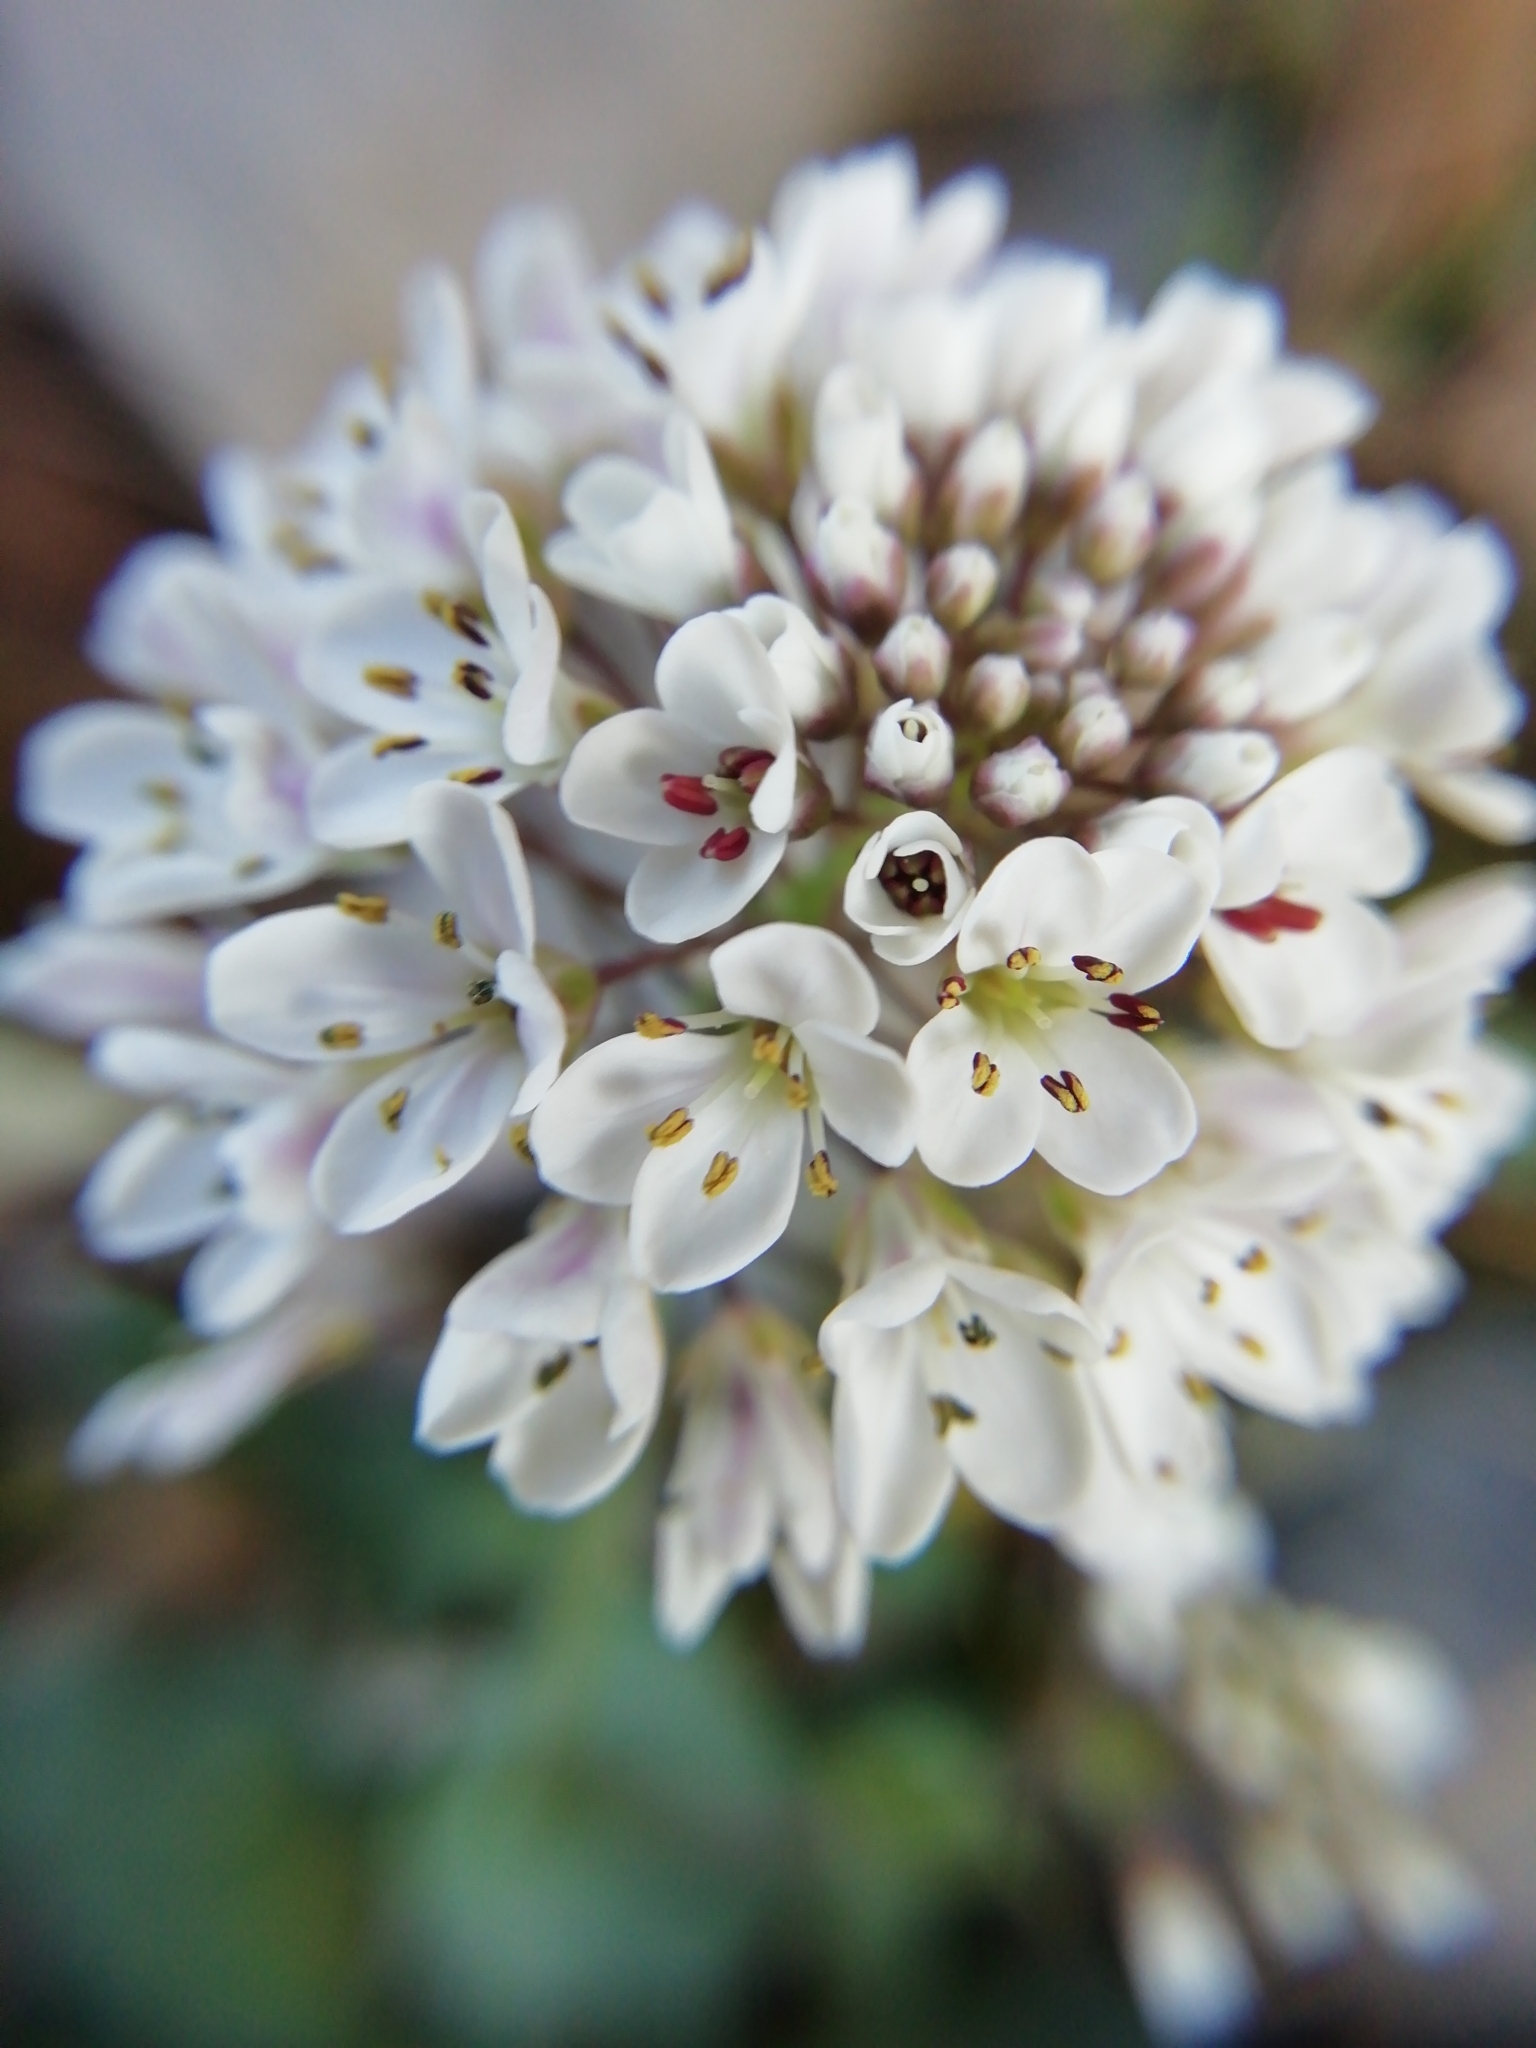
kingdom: Plantae
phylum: Tracheophyta
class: Magnoliopsida
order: Brassicales
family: Brassicaceae
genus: Noccaea
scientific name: Noccaea caerulescens
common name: Alpine pennycress
